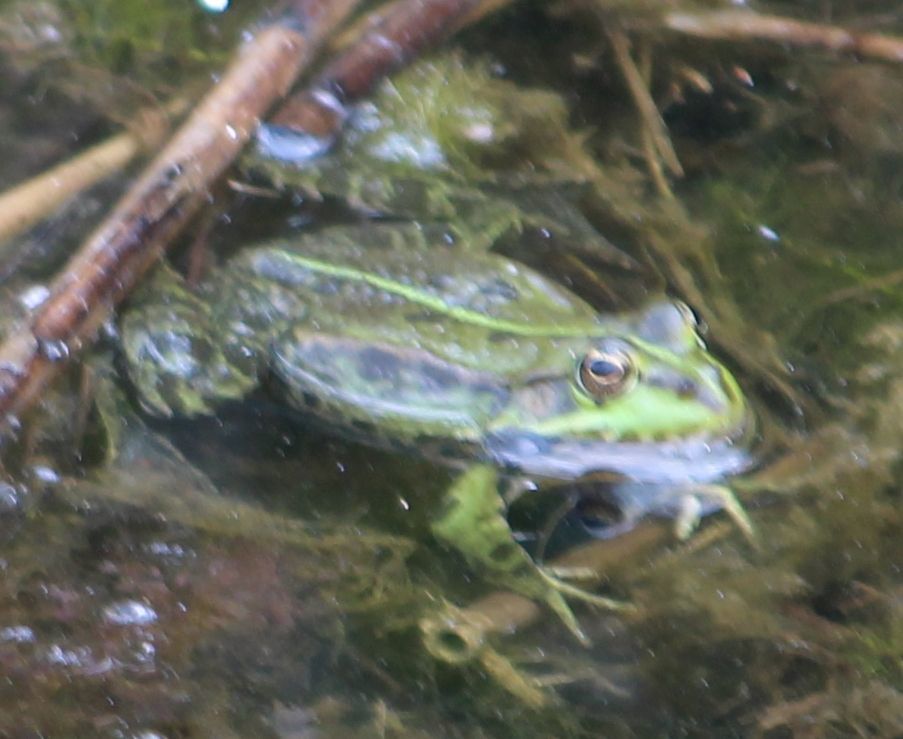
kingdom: Animalia
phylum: Chordata
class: Amphibia
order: Anura
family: Ranidae
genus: Pelophylax
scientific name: Pelophylax
